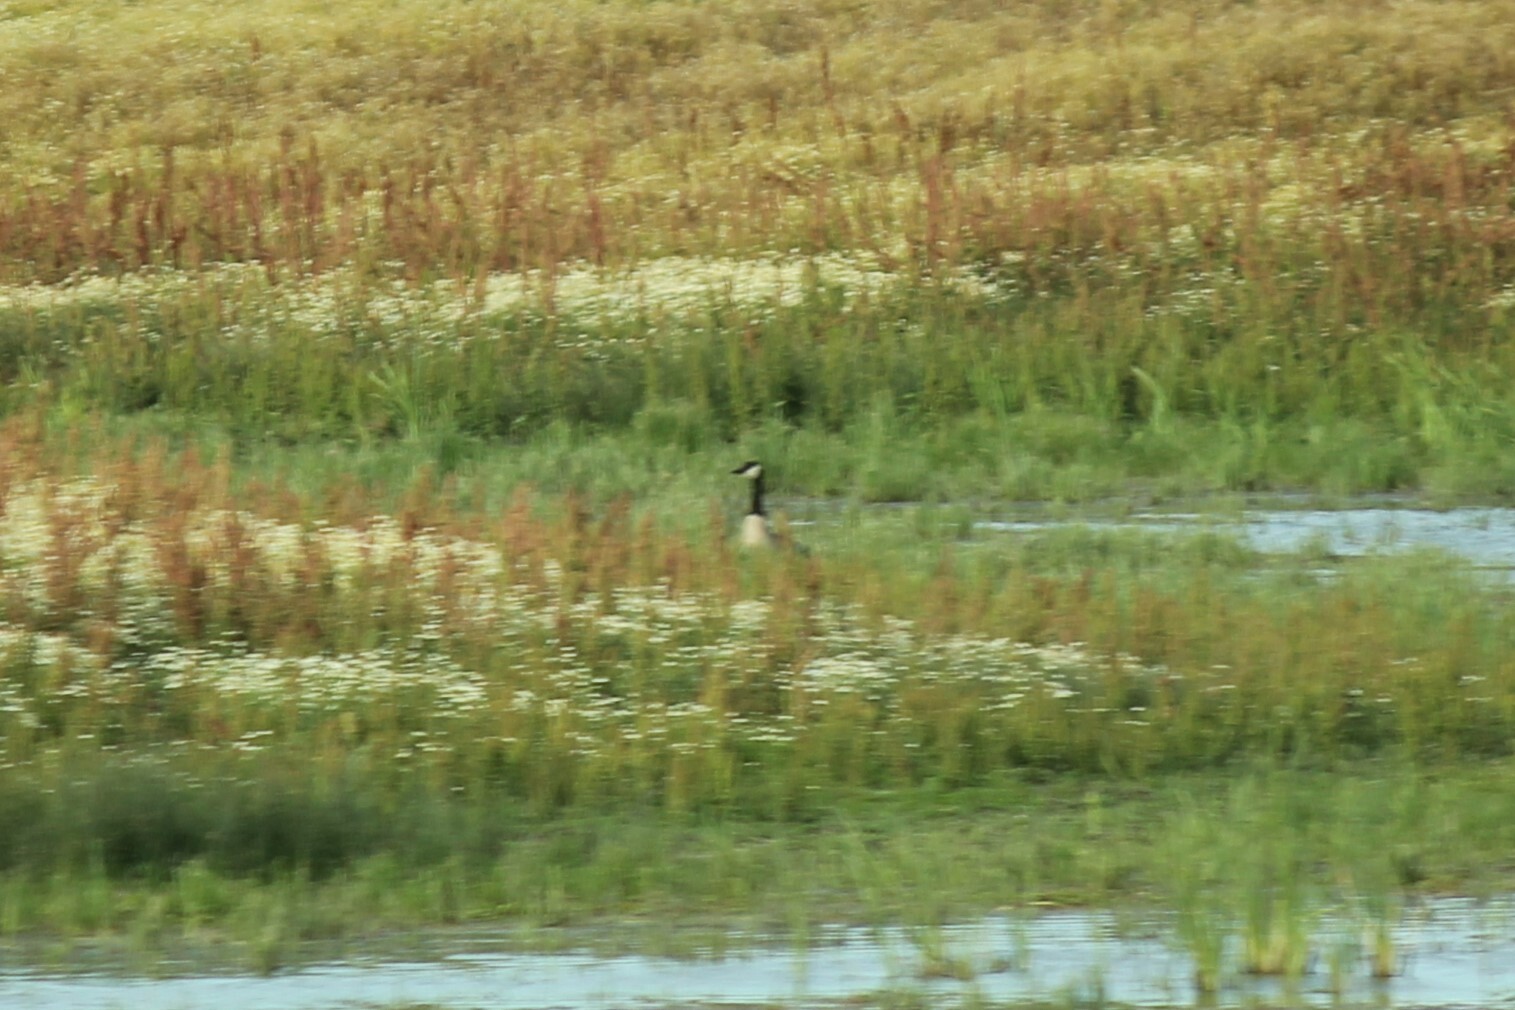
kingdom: Animalia
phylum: Chordata
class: Aves
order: Anseriformes
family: Anatidae
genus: Branta
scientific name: Branta canadensis
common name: Canada goose
